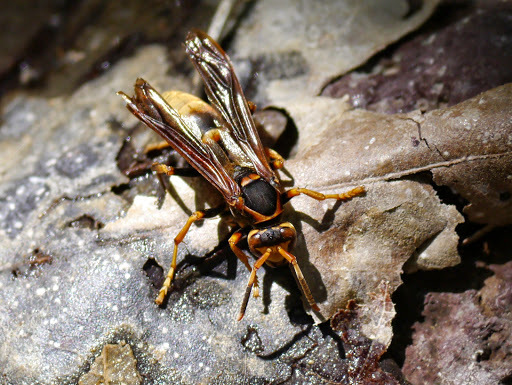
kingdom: Animalia
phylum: Arthropoda
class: Insecta
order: Hymenoptera
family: Eumenidae
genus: Polistes
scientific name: Polistes comanchus
